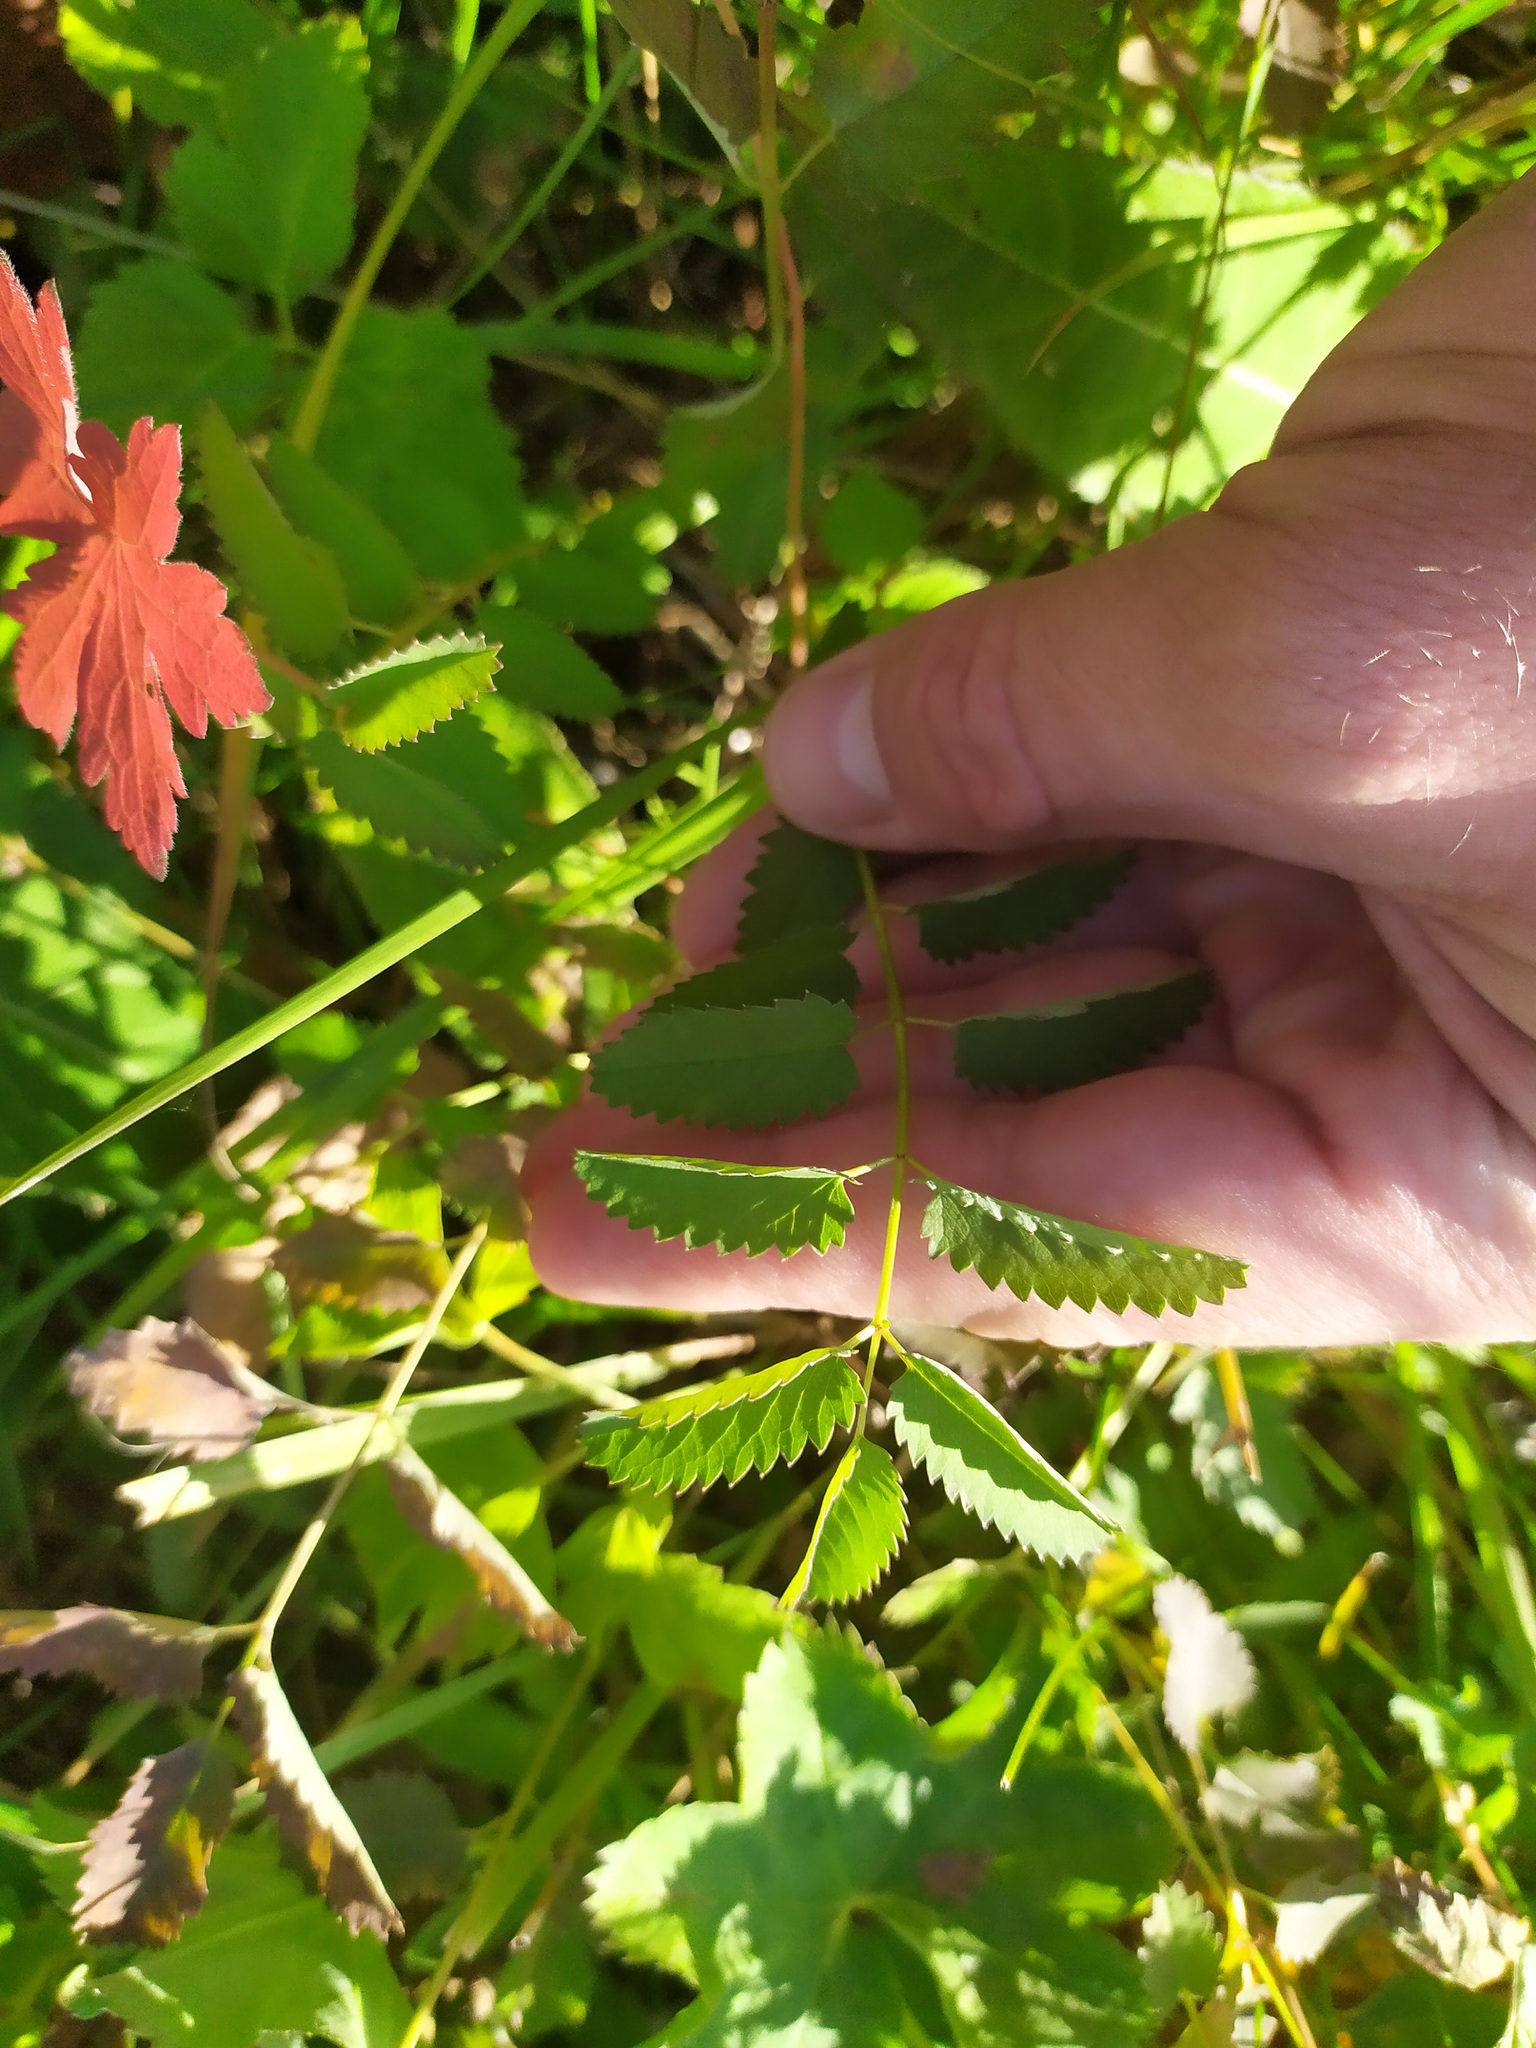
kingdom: Plantae
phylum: Tracheophyta
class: Magnoliopsida
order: Rosales
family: Rosaceae
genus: Sanguisorba
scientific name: Sanguisorba officinalis
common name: Great burnet
